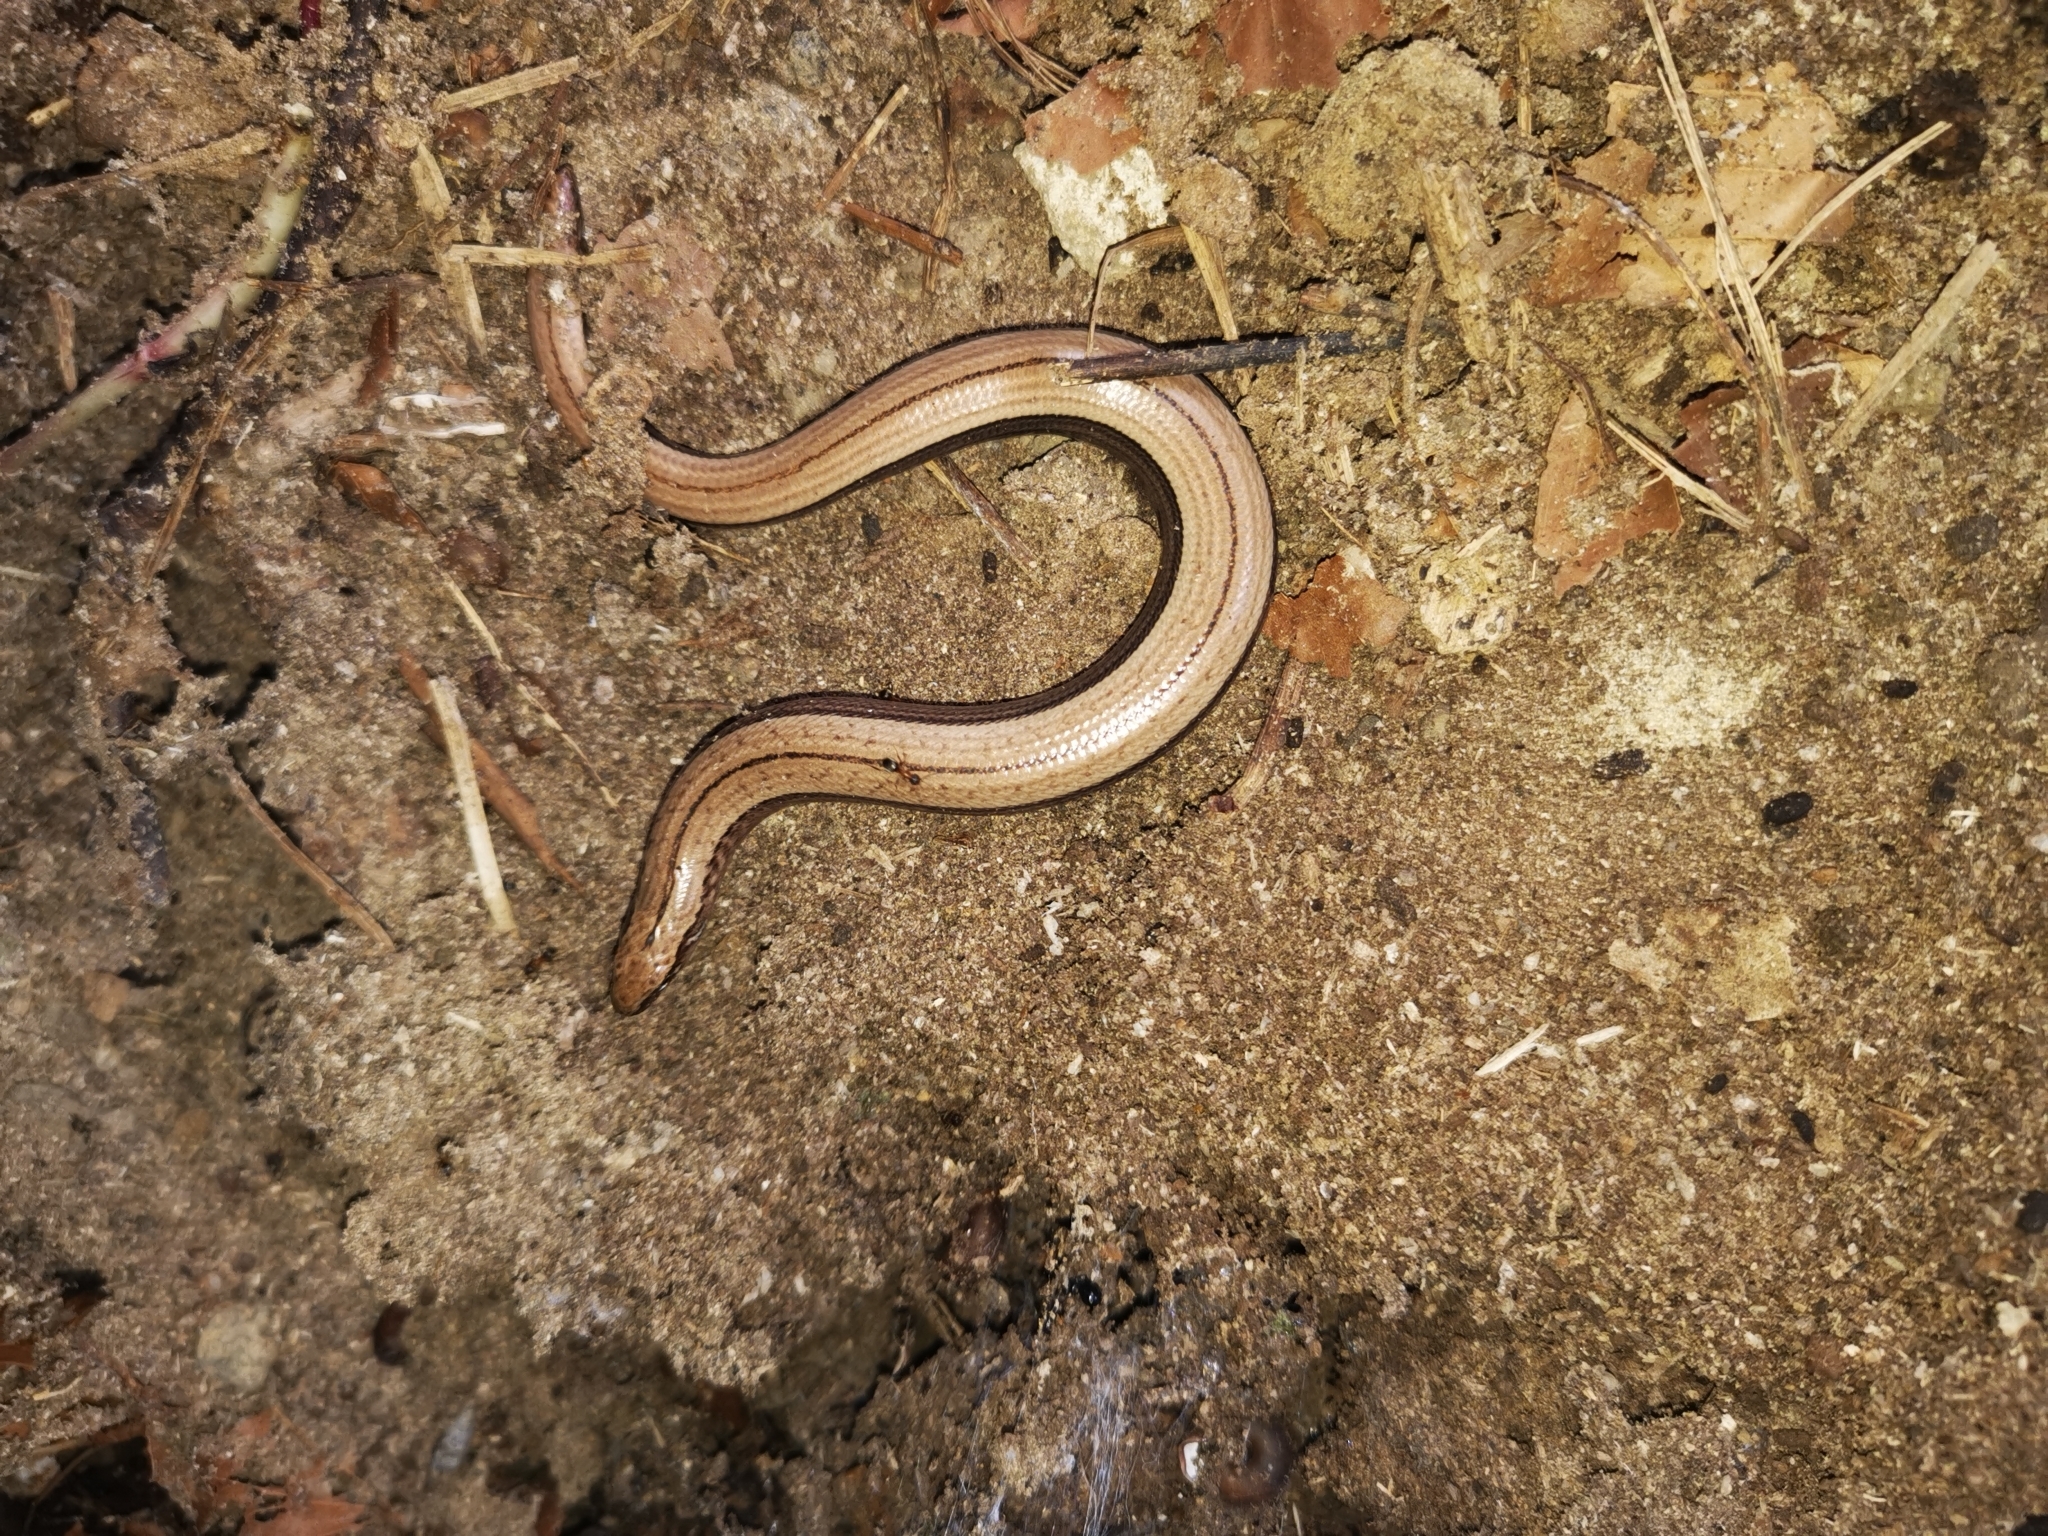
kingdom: Animalia
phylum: Chordata
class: Squamata
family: Anguidae
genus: Anguis
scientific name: Anguis fragilis
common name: Slow worm
